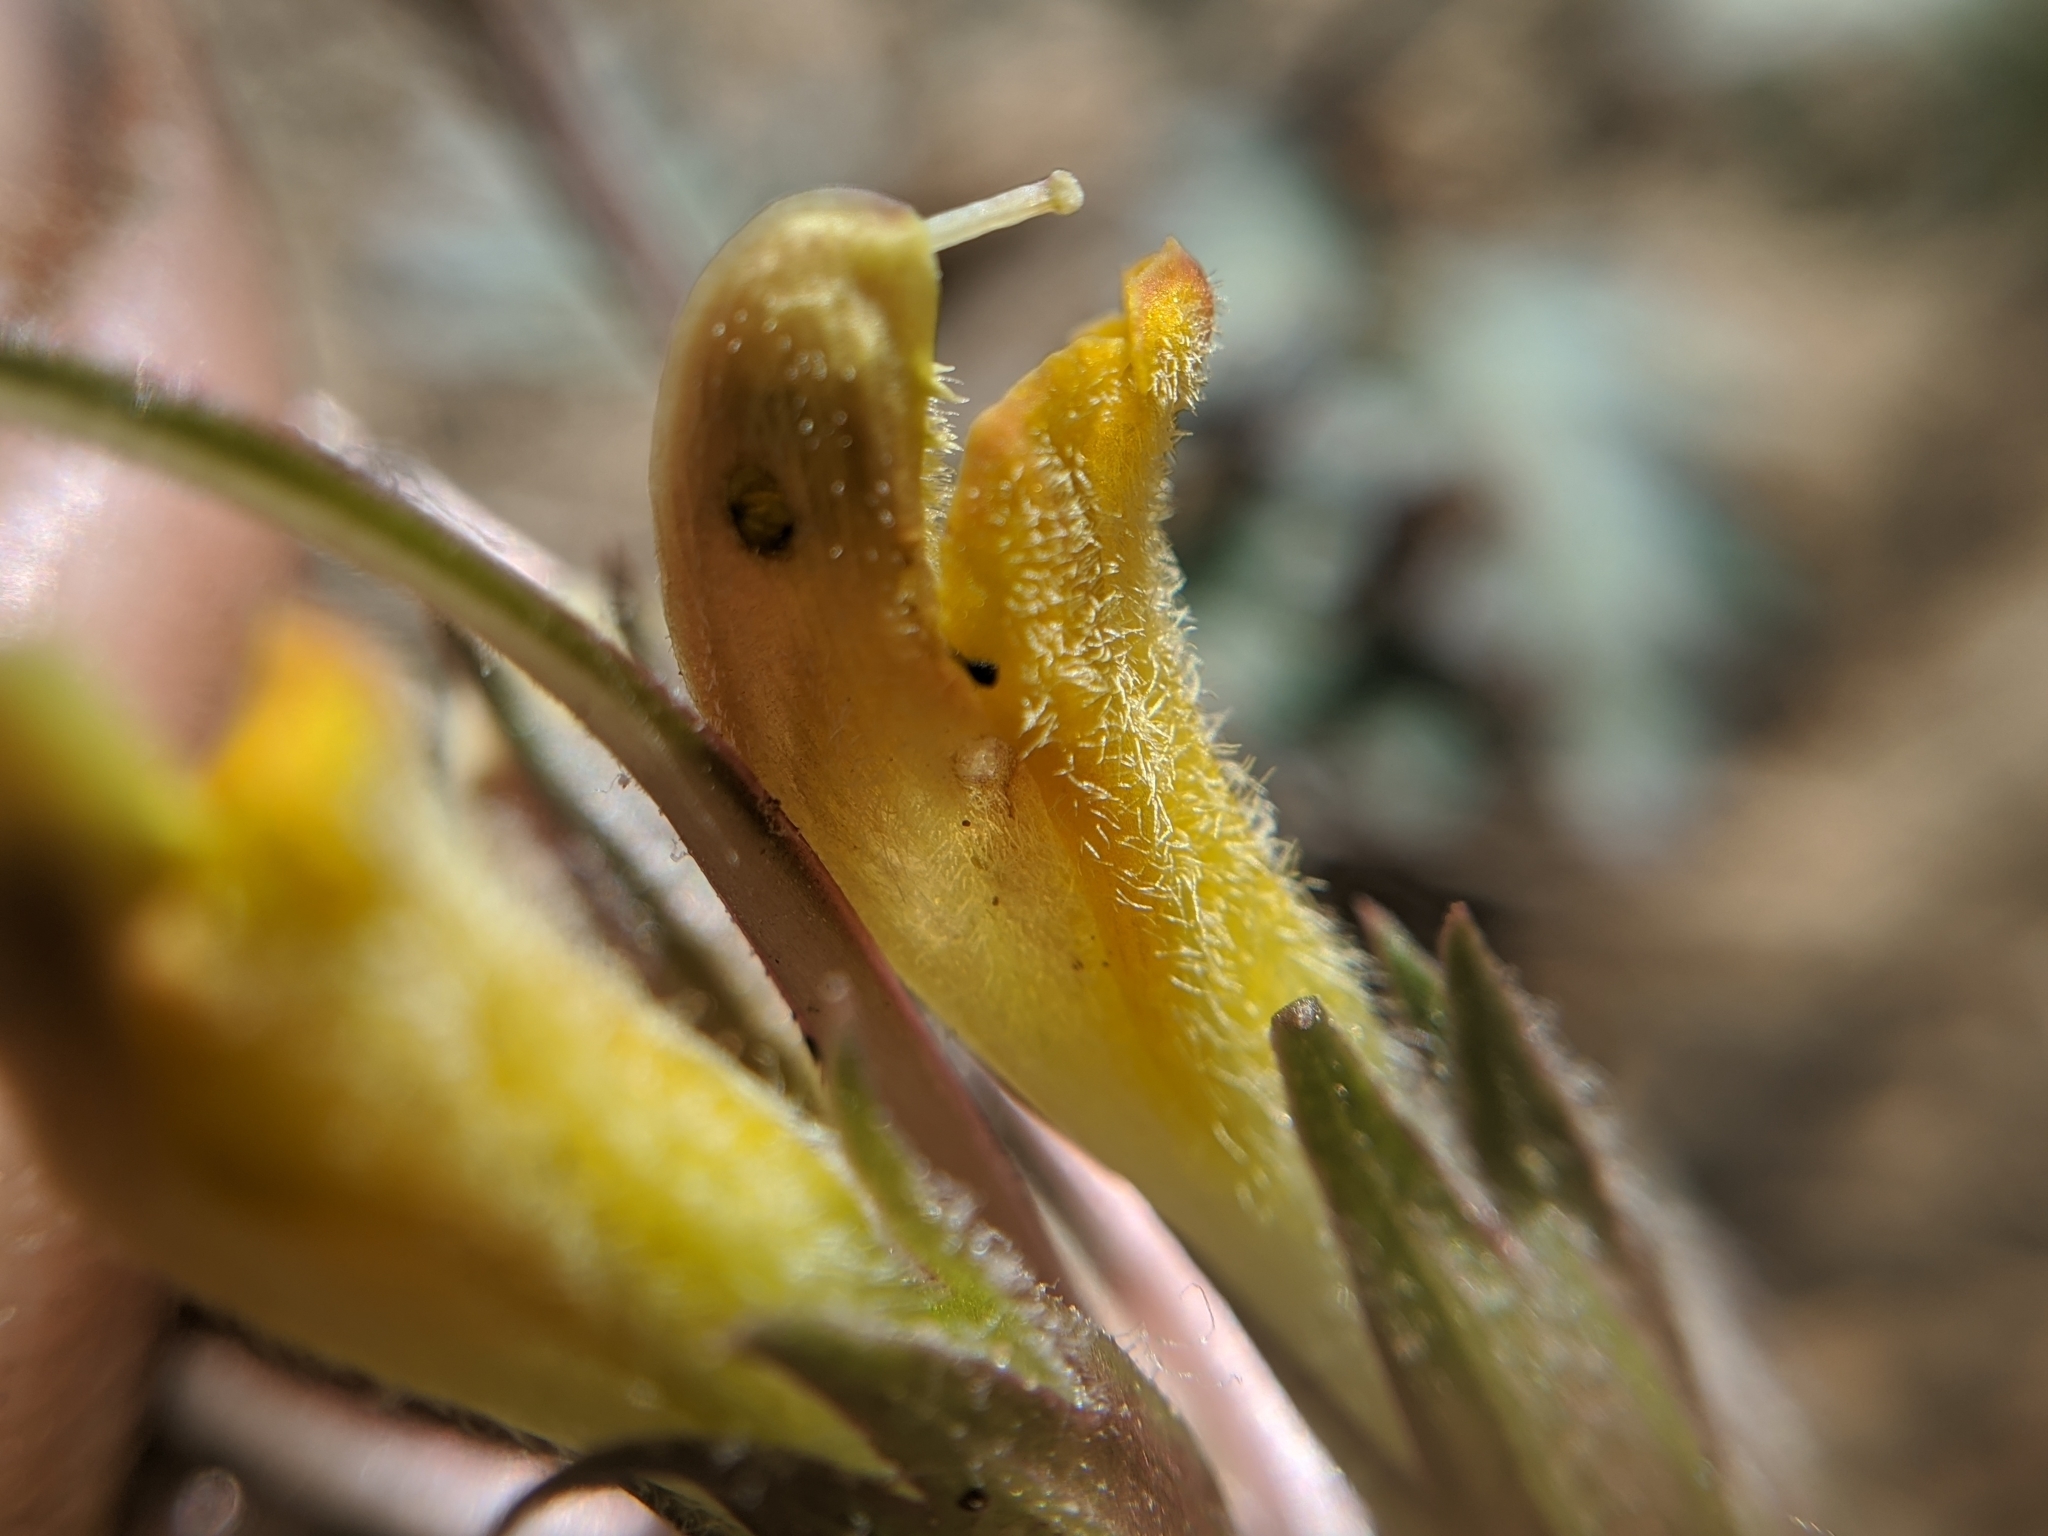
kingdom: Plantae
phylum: Tracheophyta
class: Magnoliopsida
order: Lamiales
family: Orobanchaceae
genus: Pedicularis
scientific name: Pedicularis semibarbata
